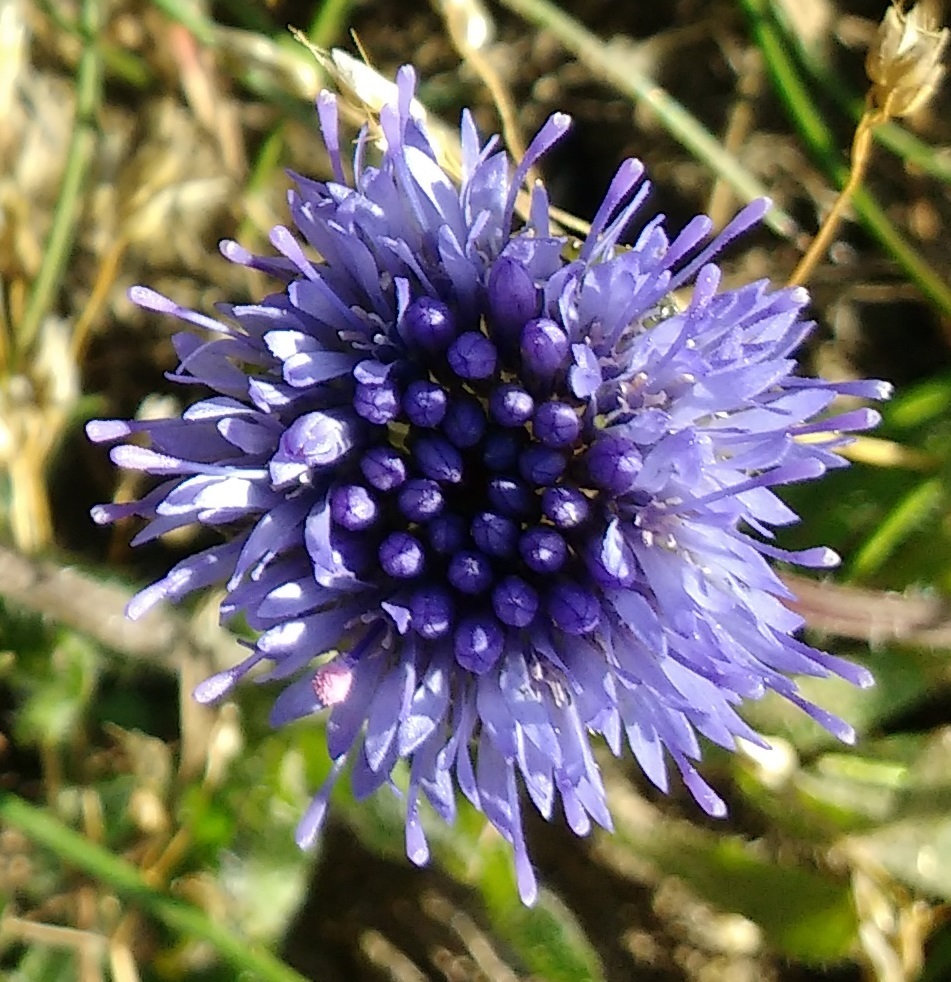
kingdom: Plantae
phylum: Tracheophyta
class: Magnoliopsida
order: Asterales
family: Campanulaceae
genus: Jasione
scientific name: Jasione montana
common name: Sheep's-bit
